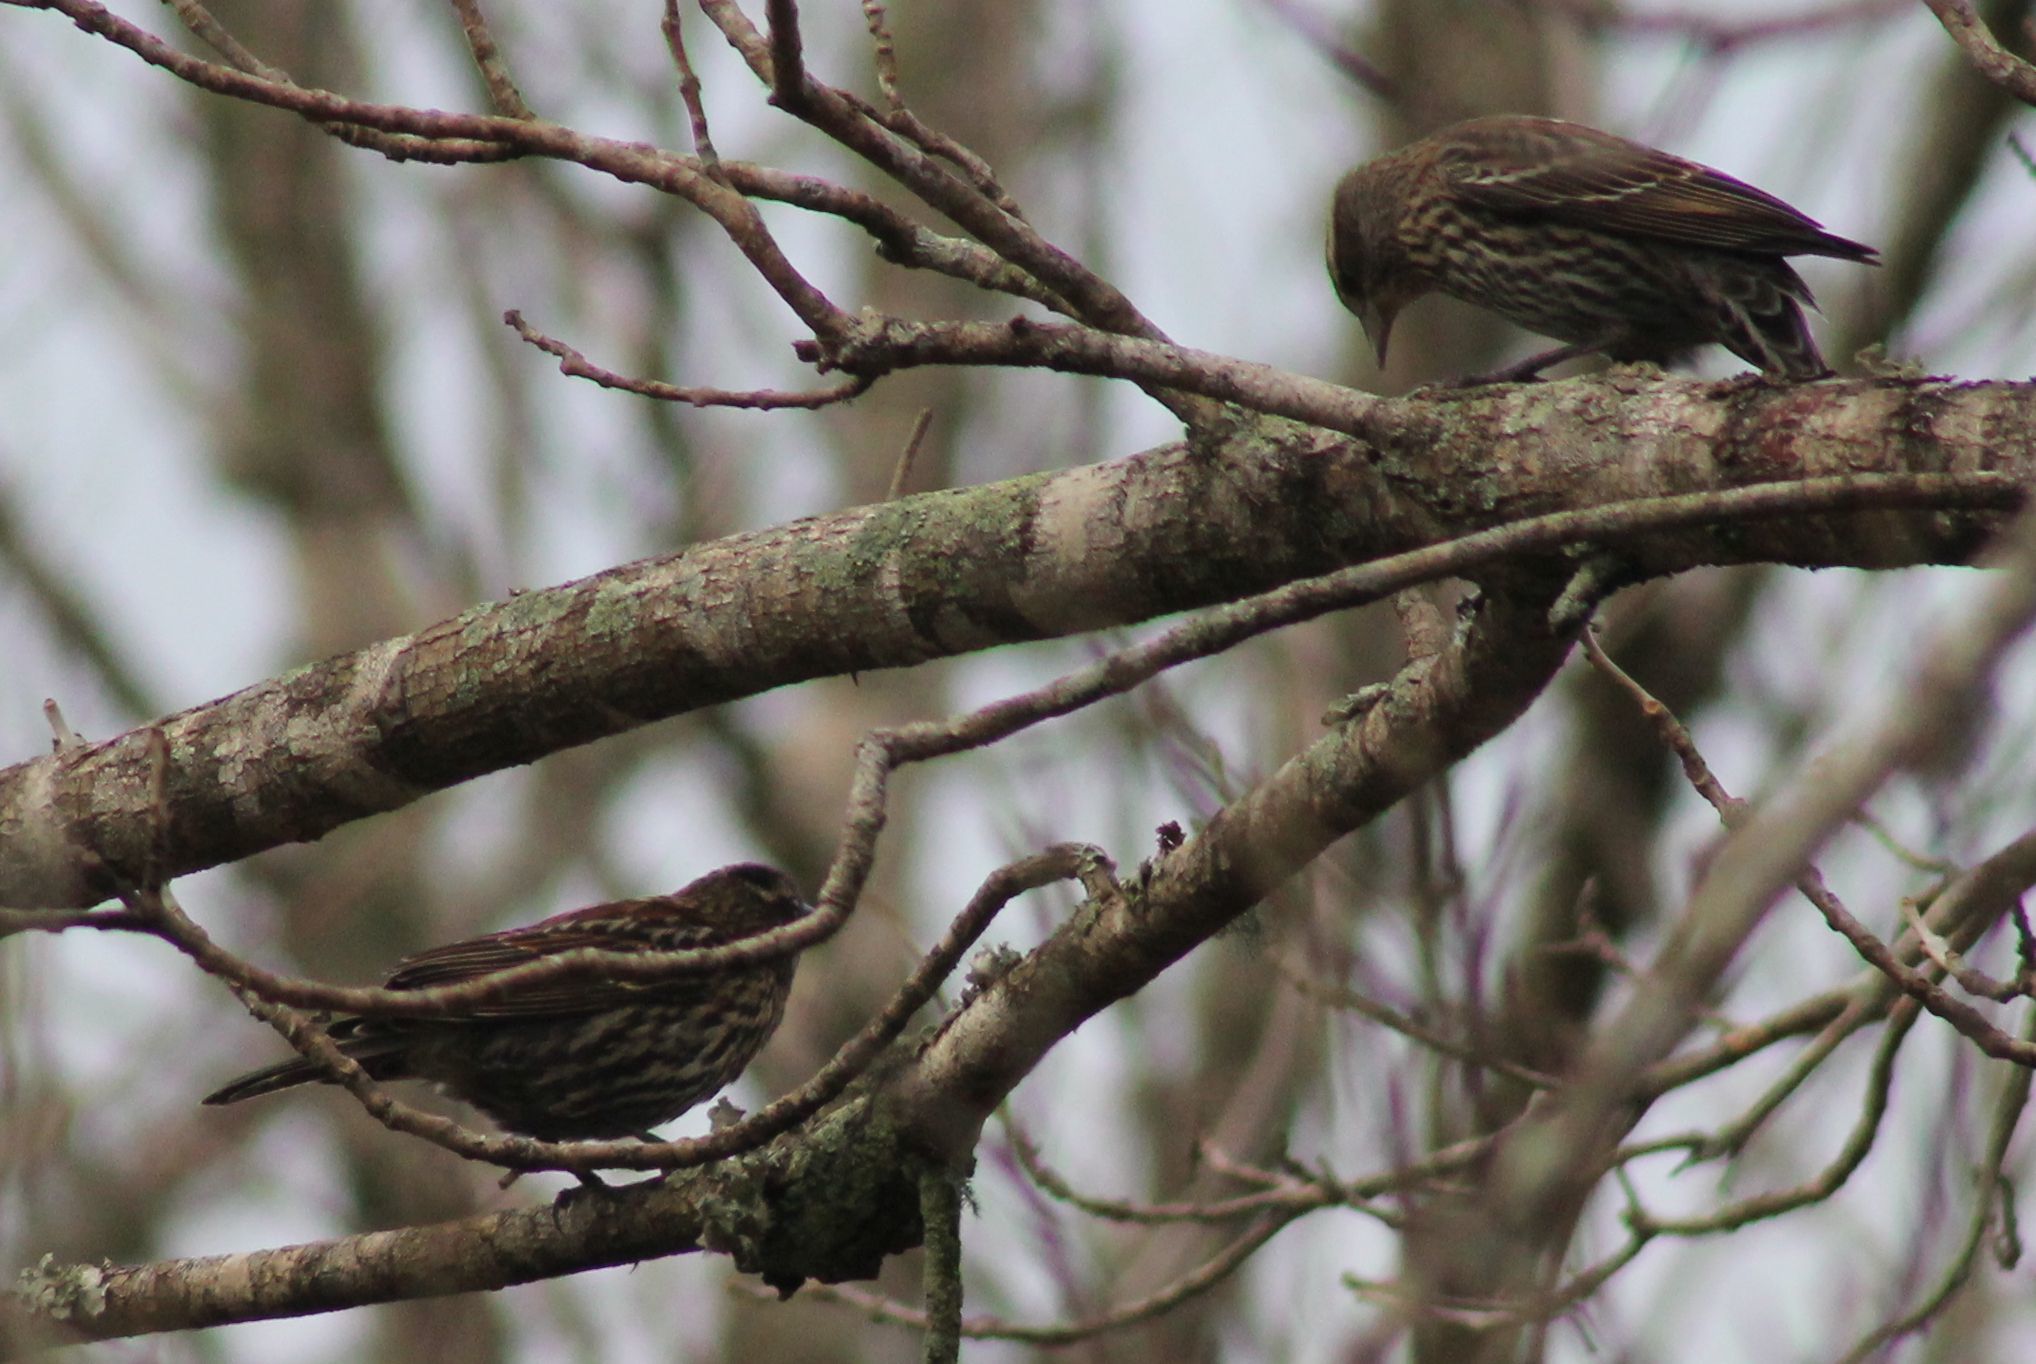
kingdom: Animalia
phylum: Chordata
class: Aves
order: Passeriformes
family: Icteridae
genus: Agelaius
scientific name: Agelaius phoeniceus
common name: Red-winged blackbird
